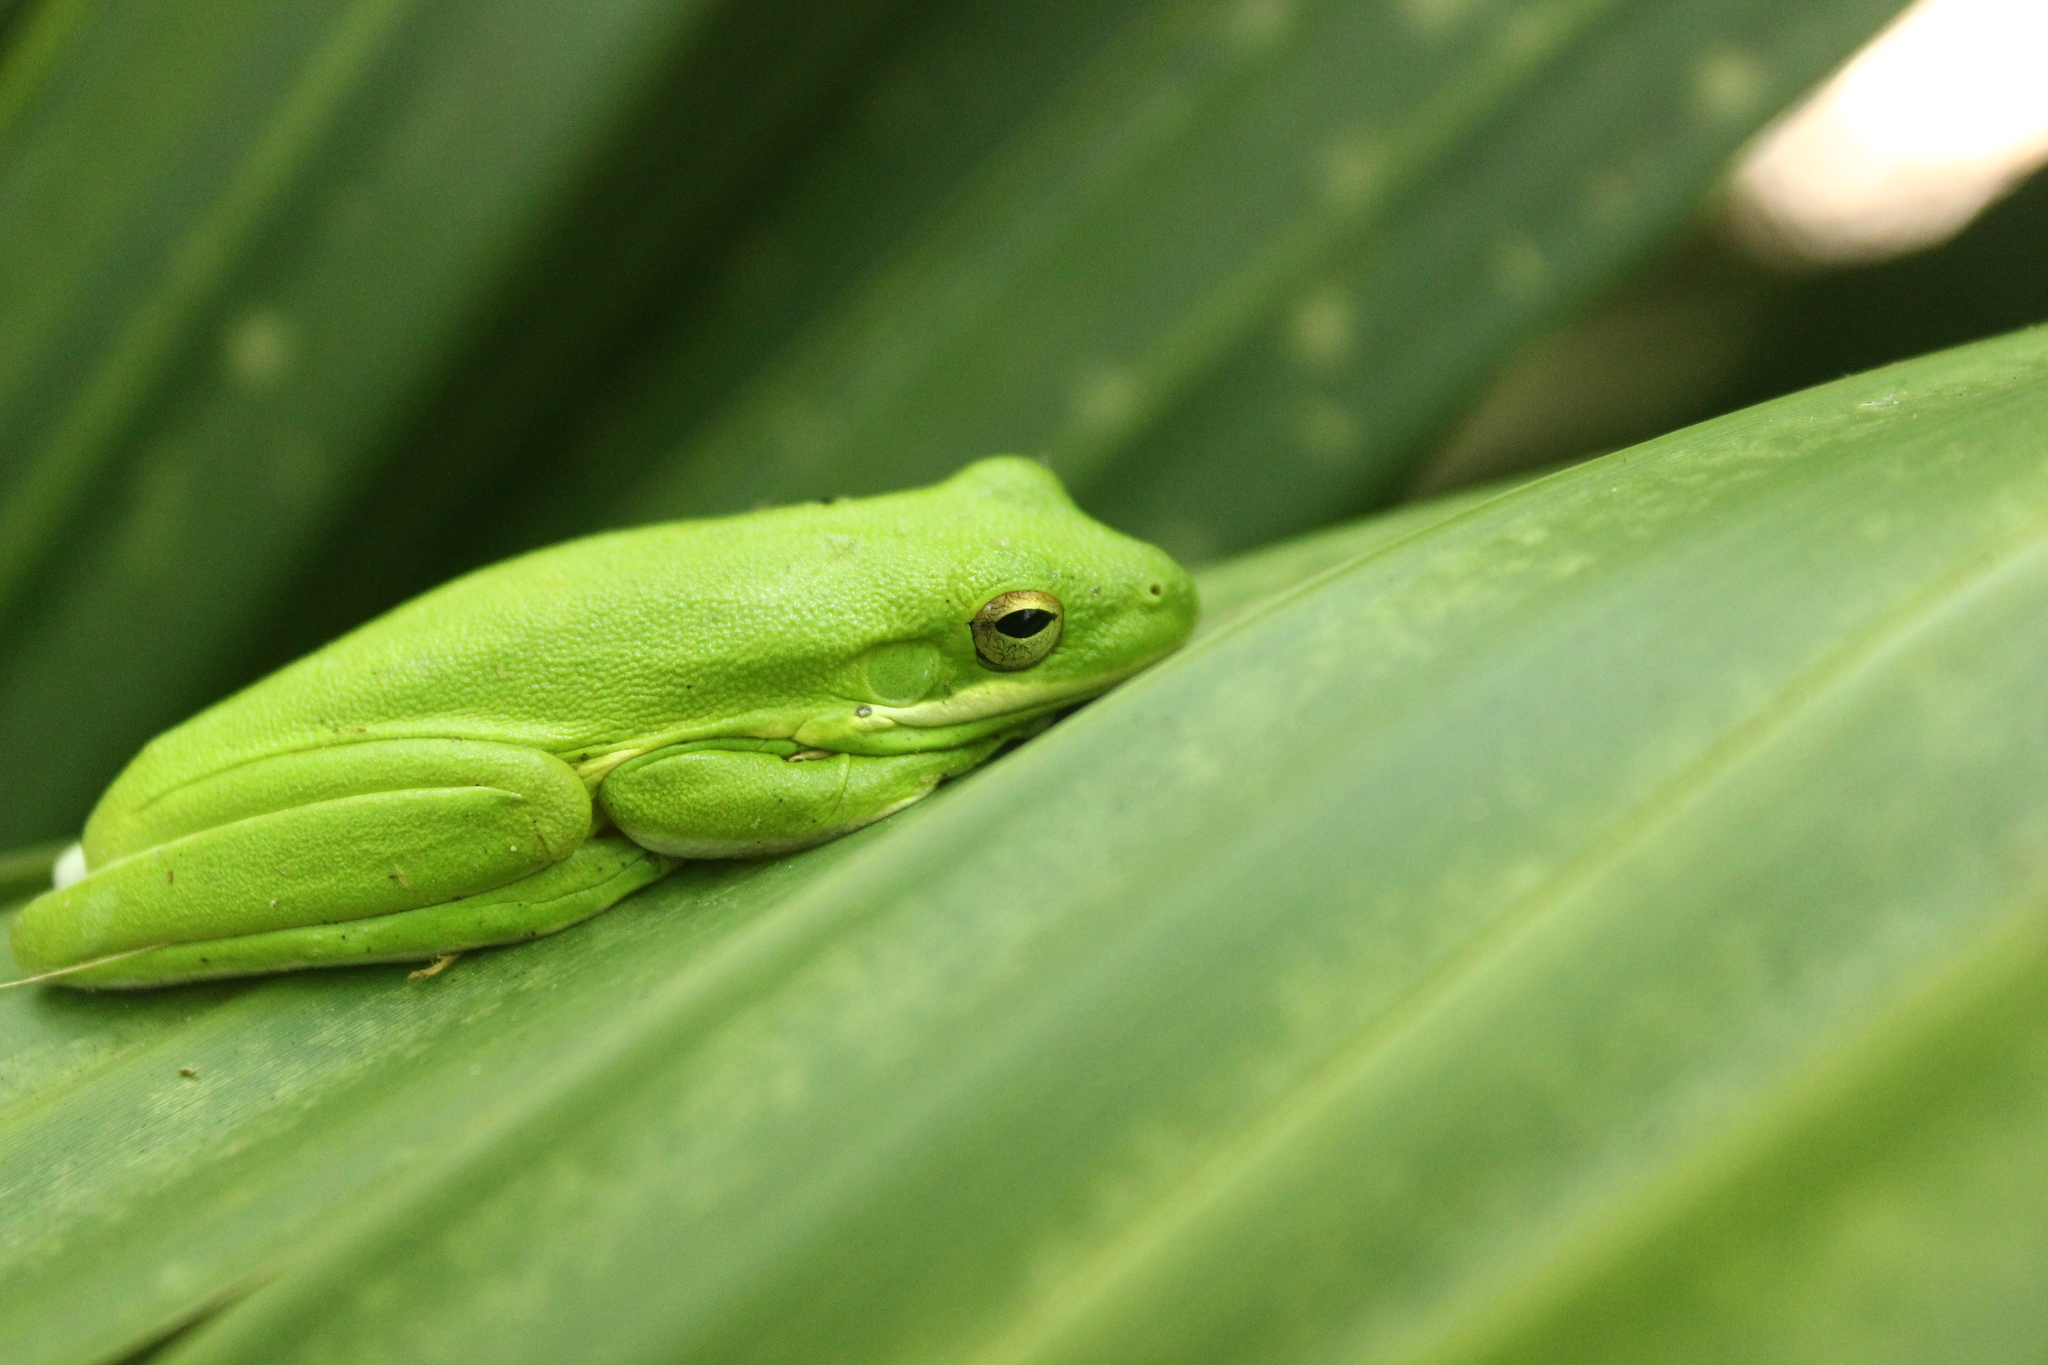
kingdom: Animalia
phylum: Chordata
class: Amphibia
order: Anura
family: Hylidae
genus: Dryophytes
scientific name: Dryophytes cinereus
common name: Green treefrog
